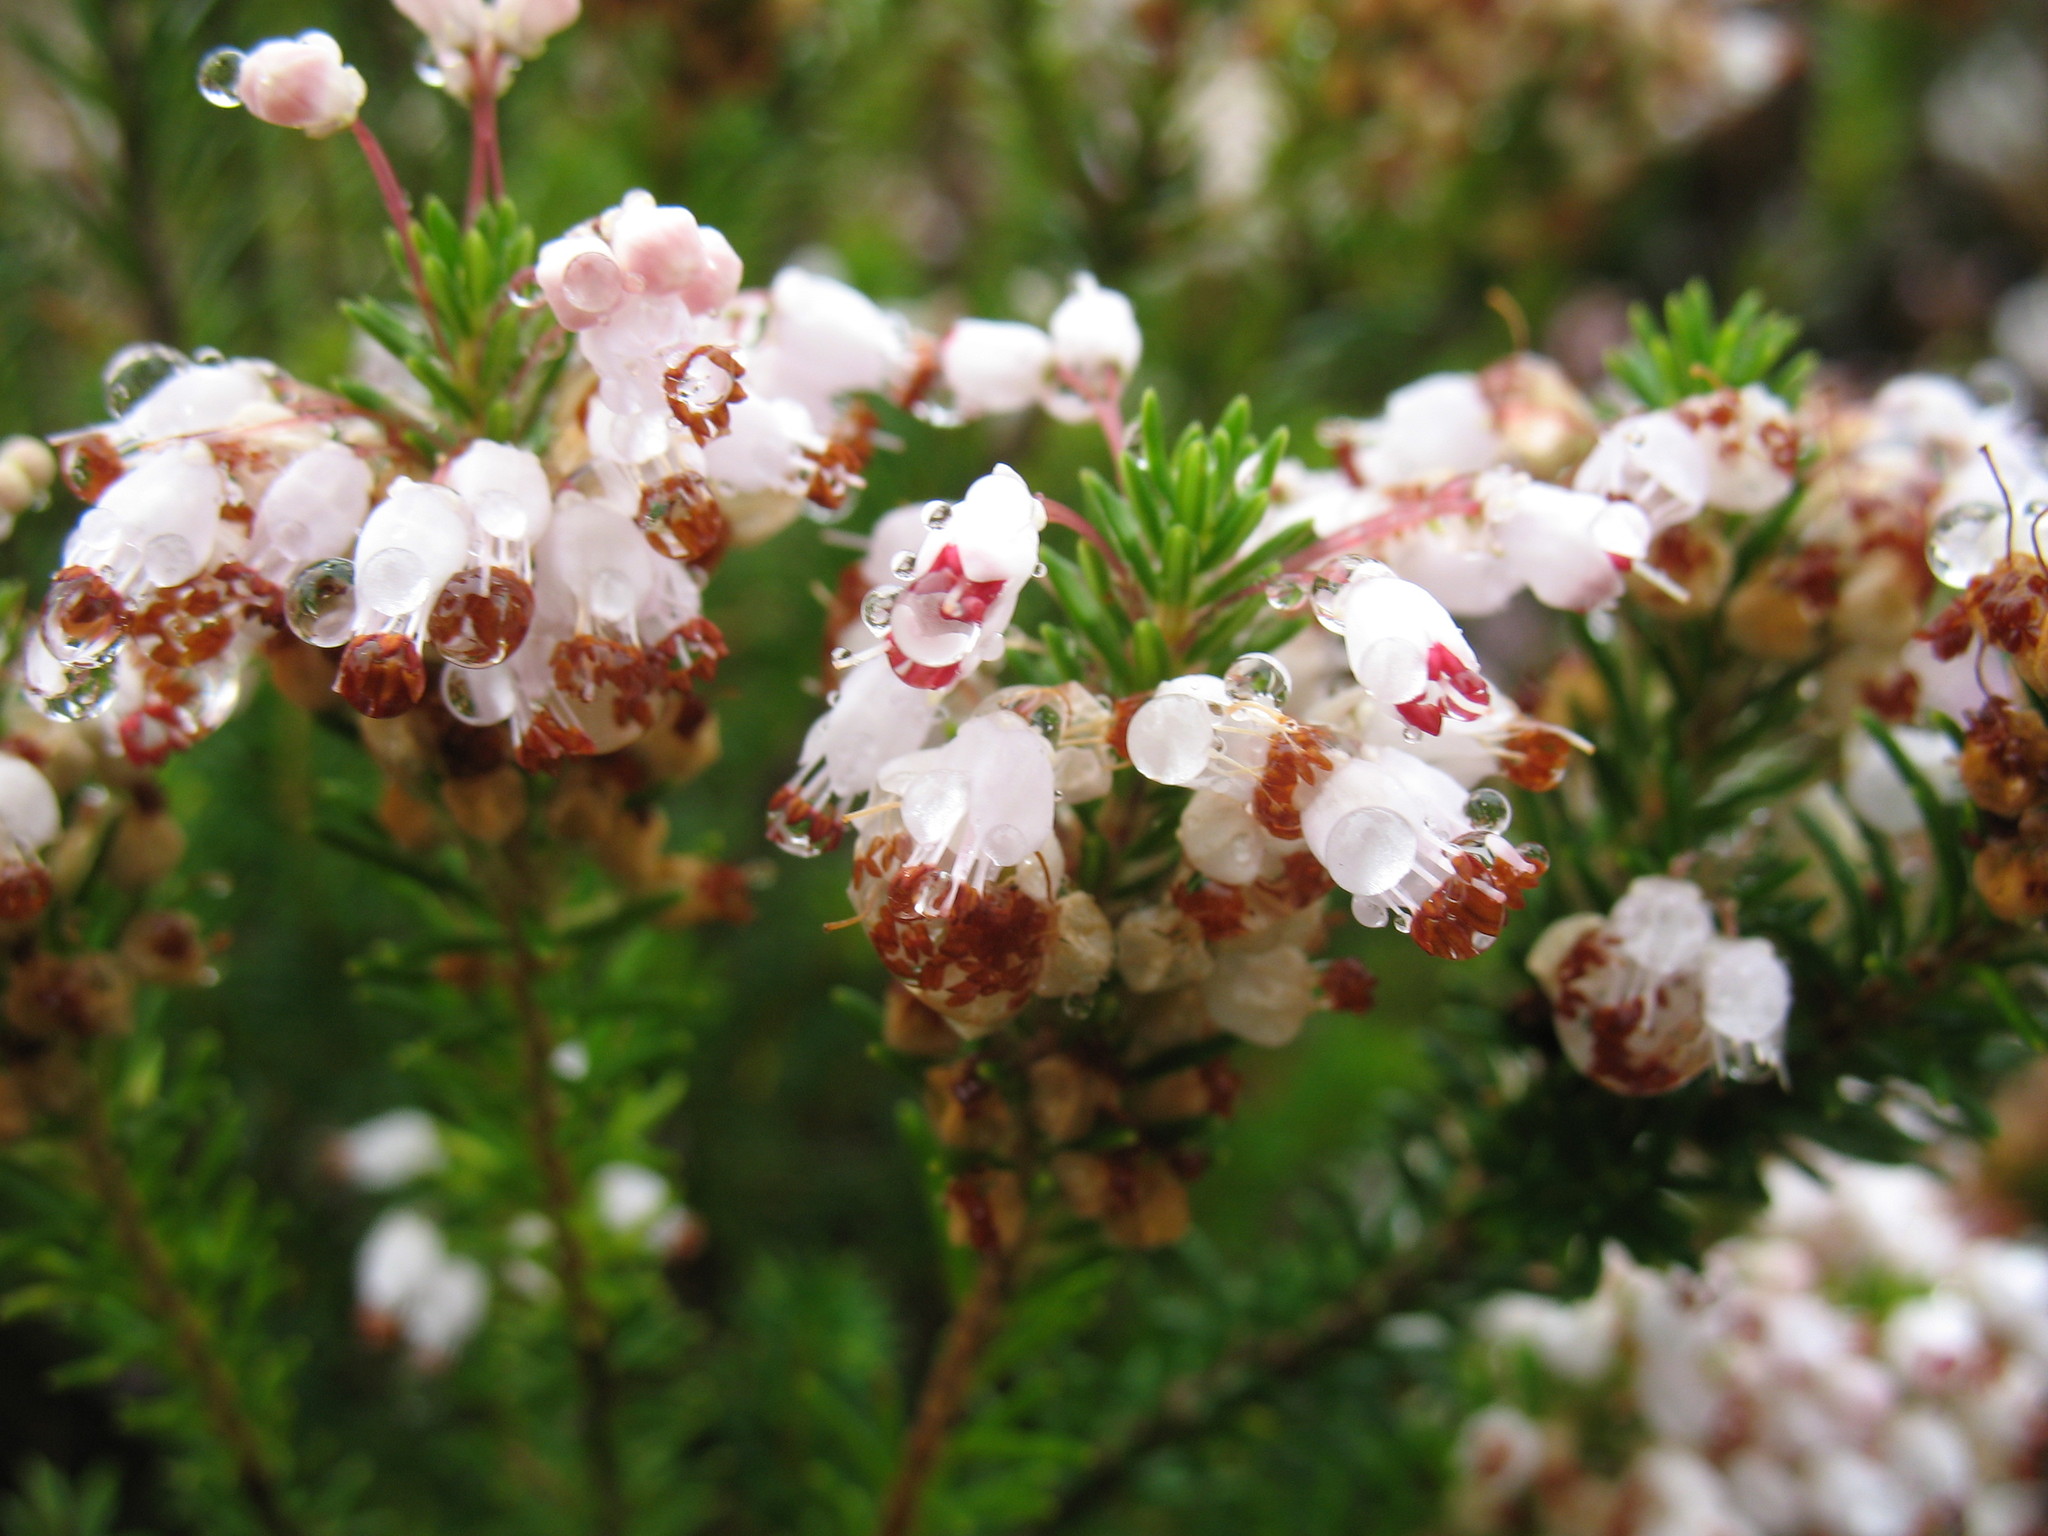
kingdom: Plantae
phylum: Tracheophyta
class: Magnoliopsida
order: Ericales
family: Ericaceae
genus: Erica
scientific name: Erica vagans
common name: Cornish heath
